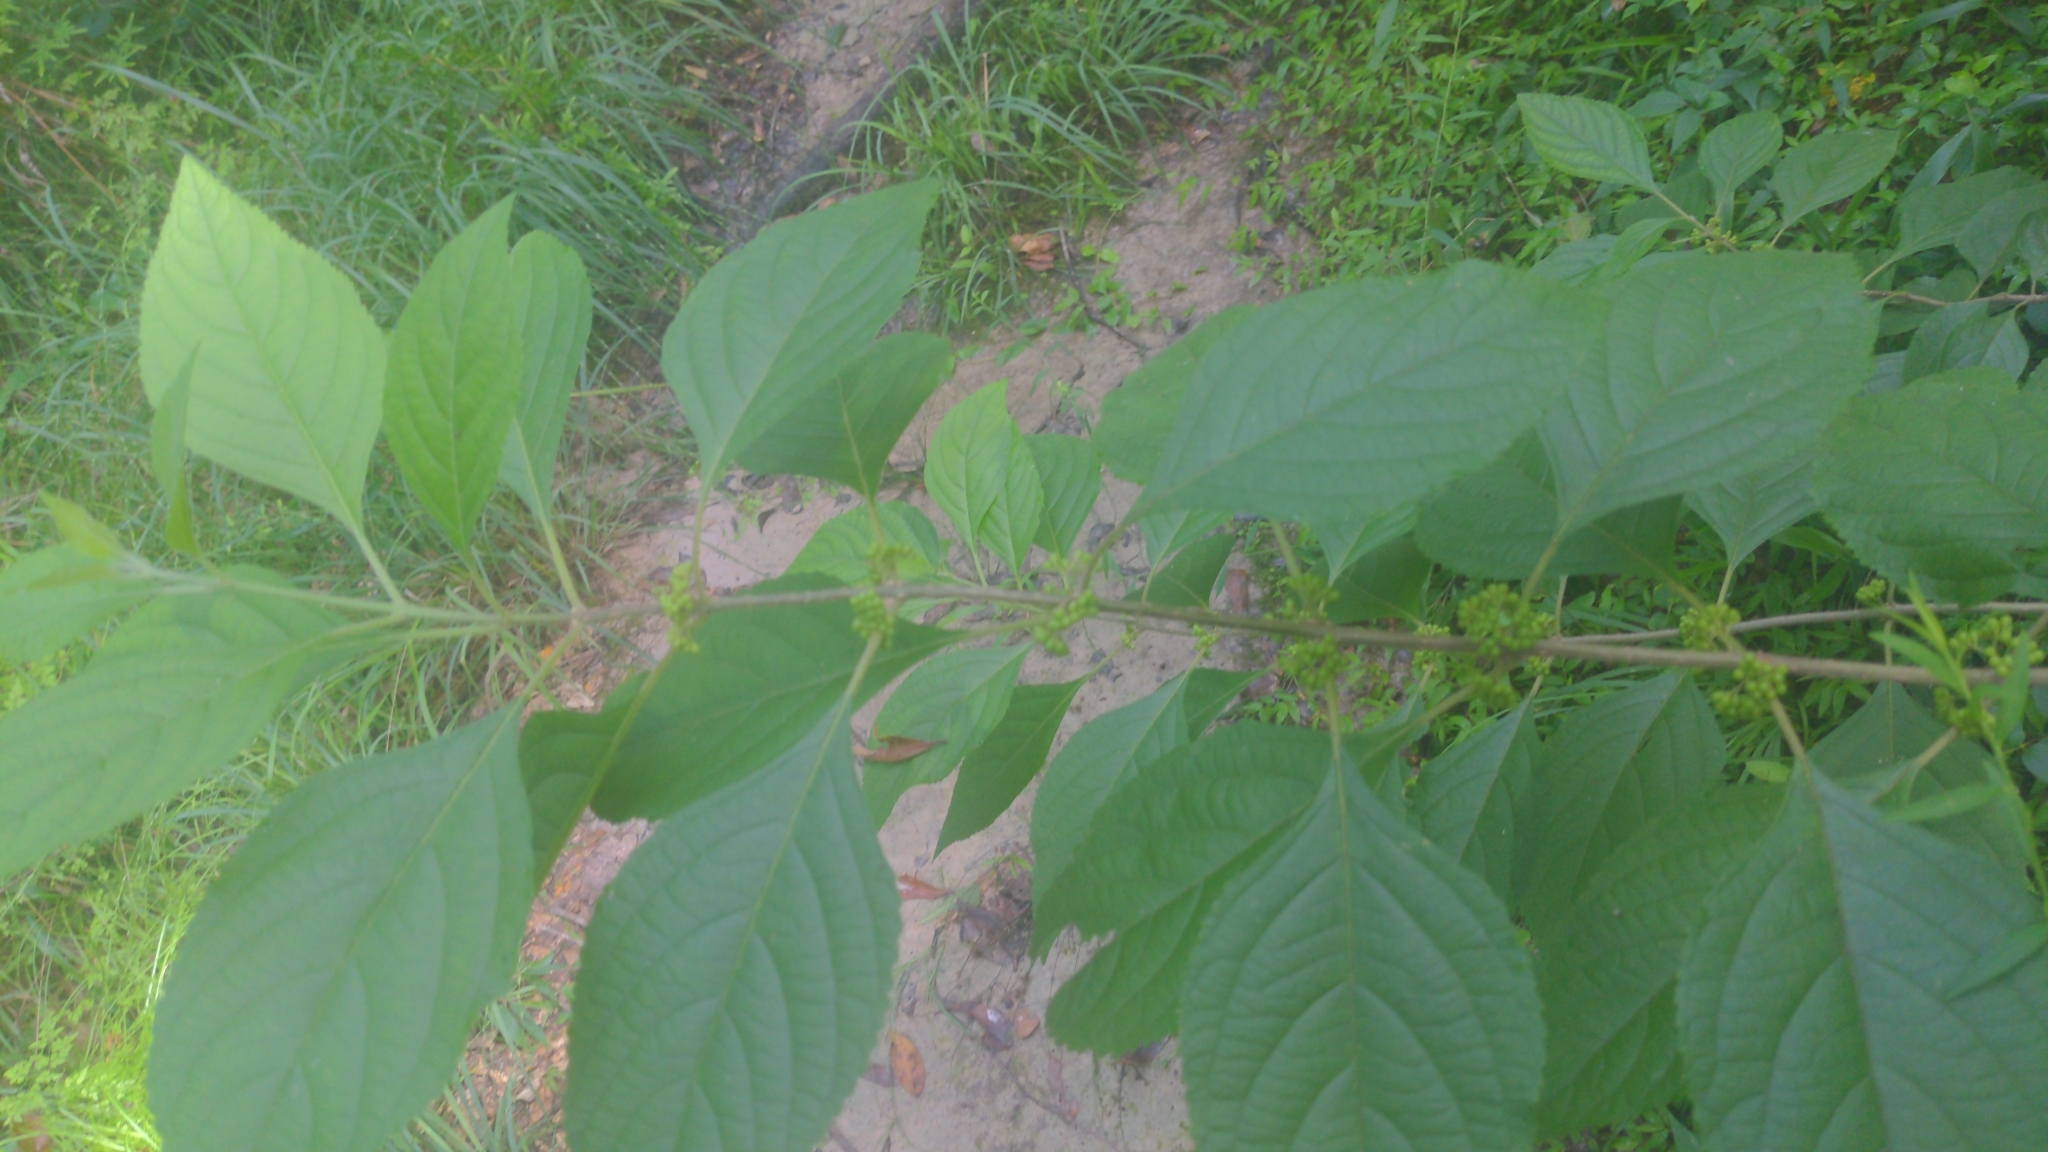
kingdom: Plantae
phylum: Tracheophyta
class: Magnoliopsida
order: Lamiales
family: Lamiaceae
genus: Callicarpa
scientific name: Callicarpa americana
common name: American beautyberry
